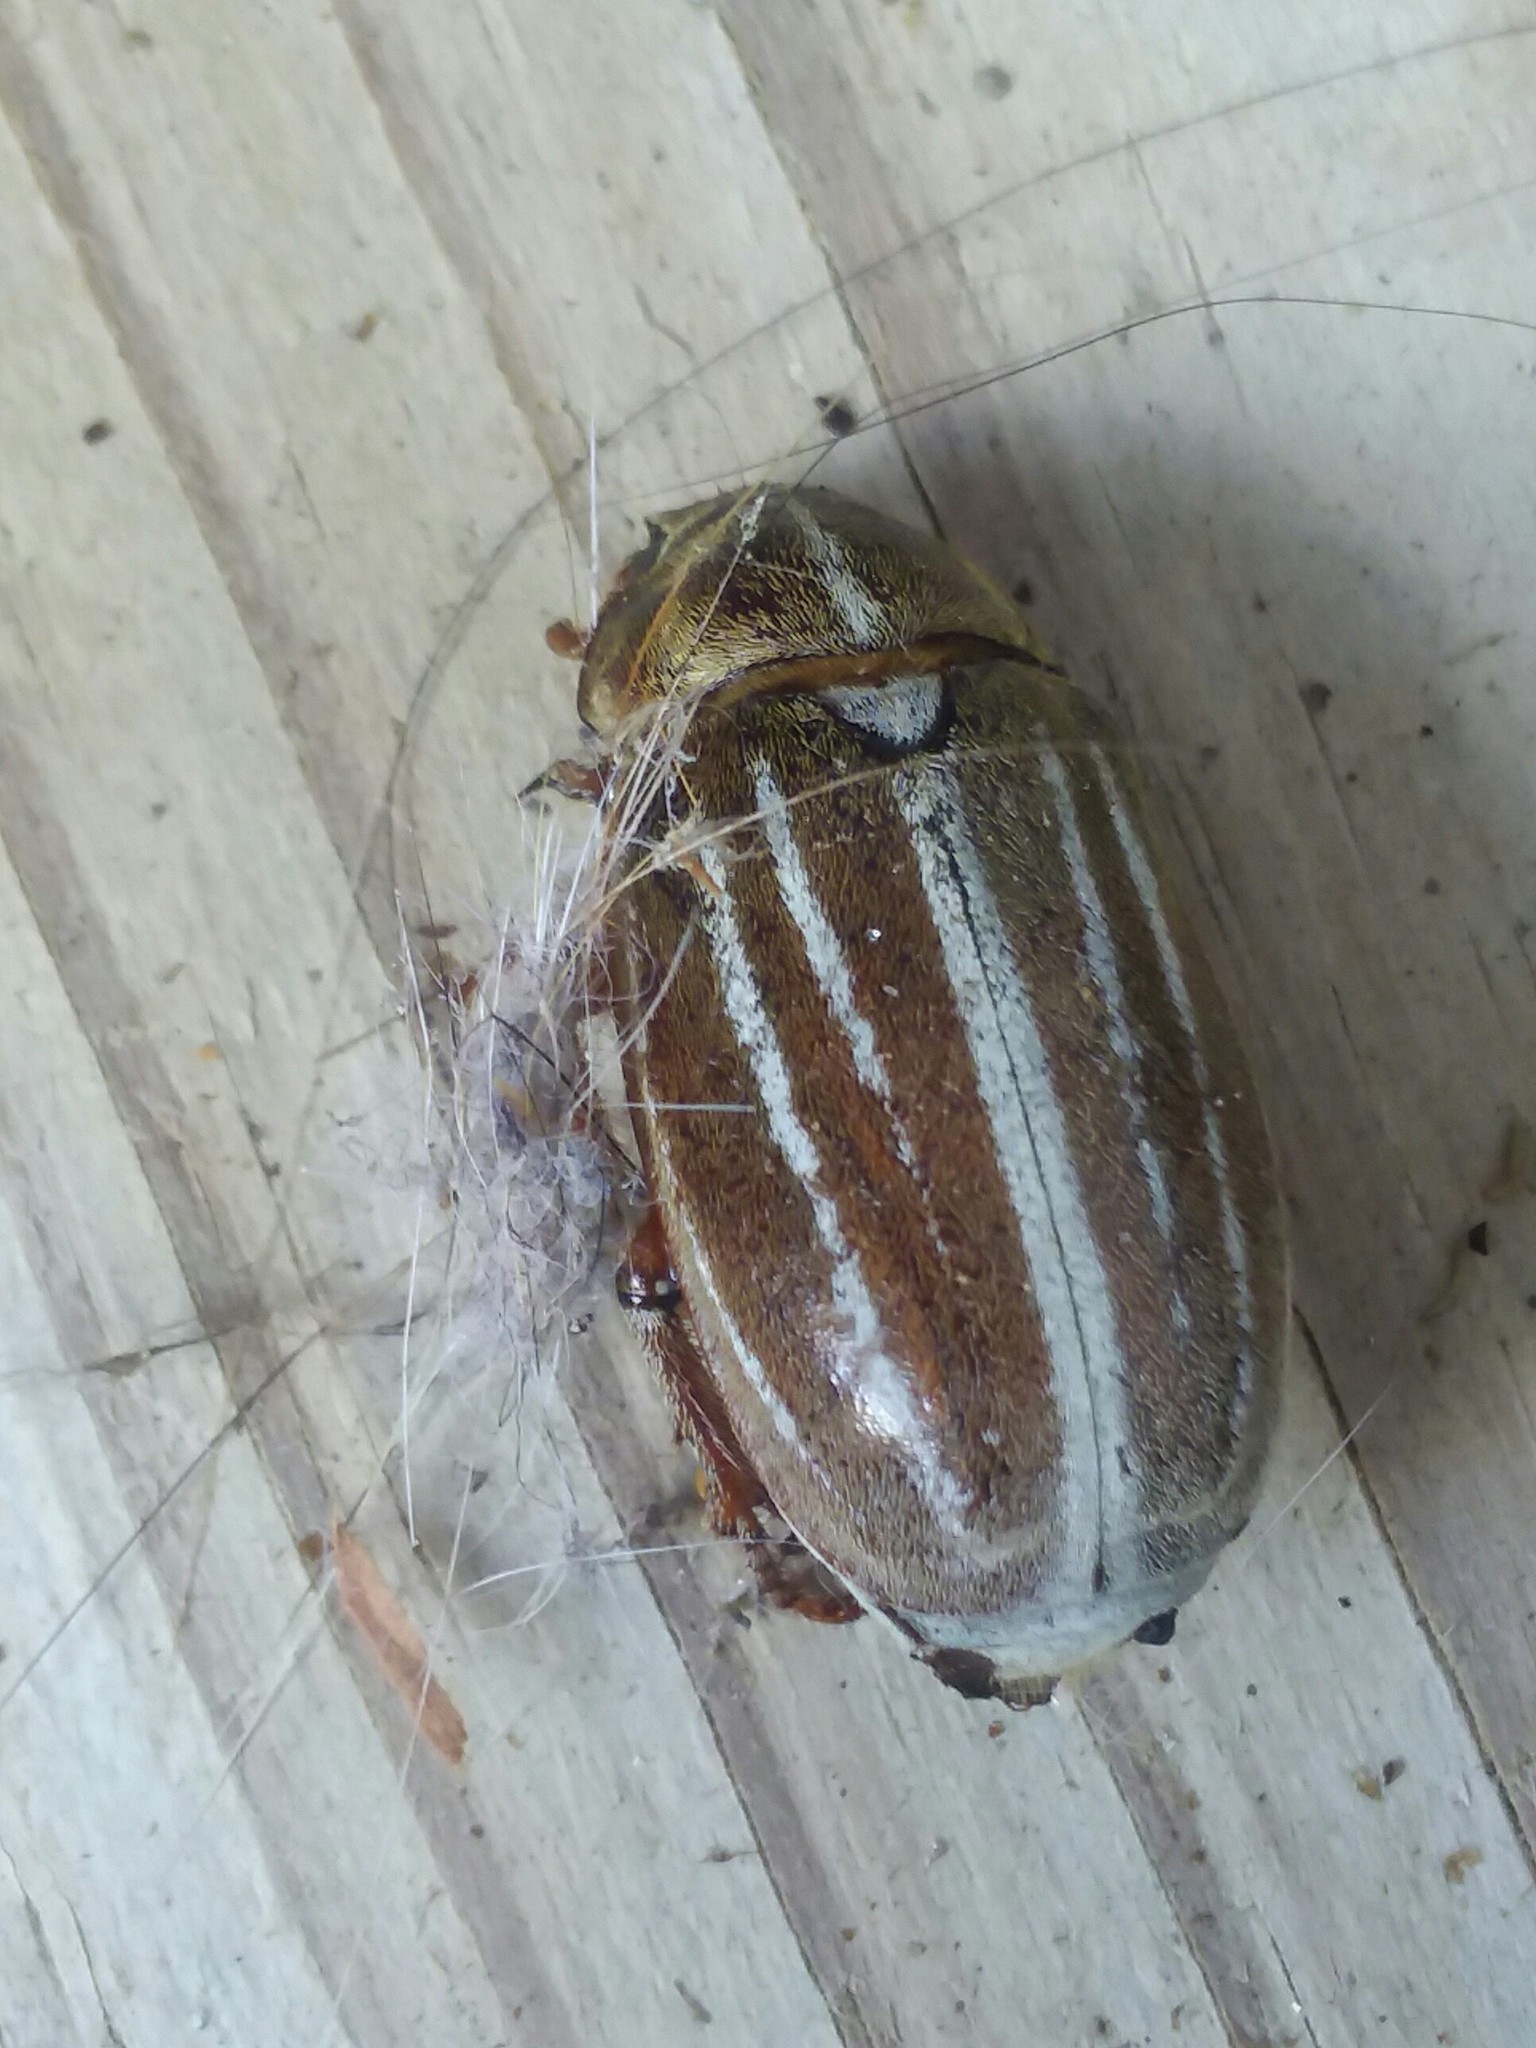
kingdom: Animalia
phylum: Arthropoda
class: Insecta
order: Coleoptera
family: Scarabaeidae
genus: Polyphylla
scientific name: Polyphylla occidentalis
